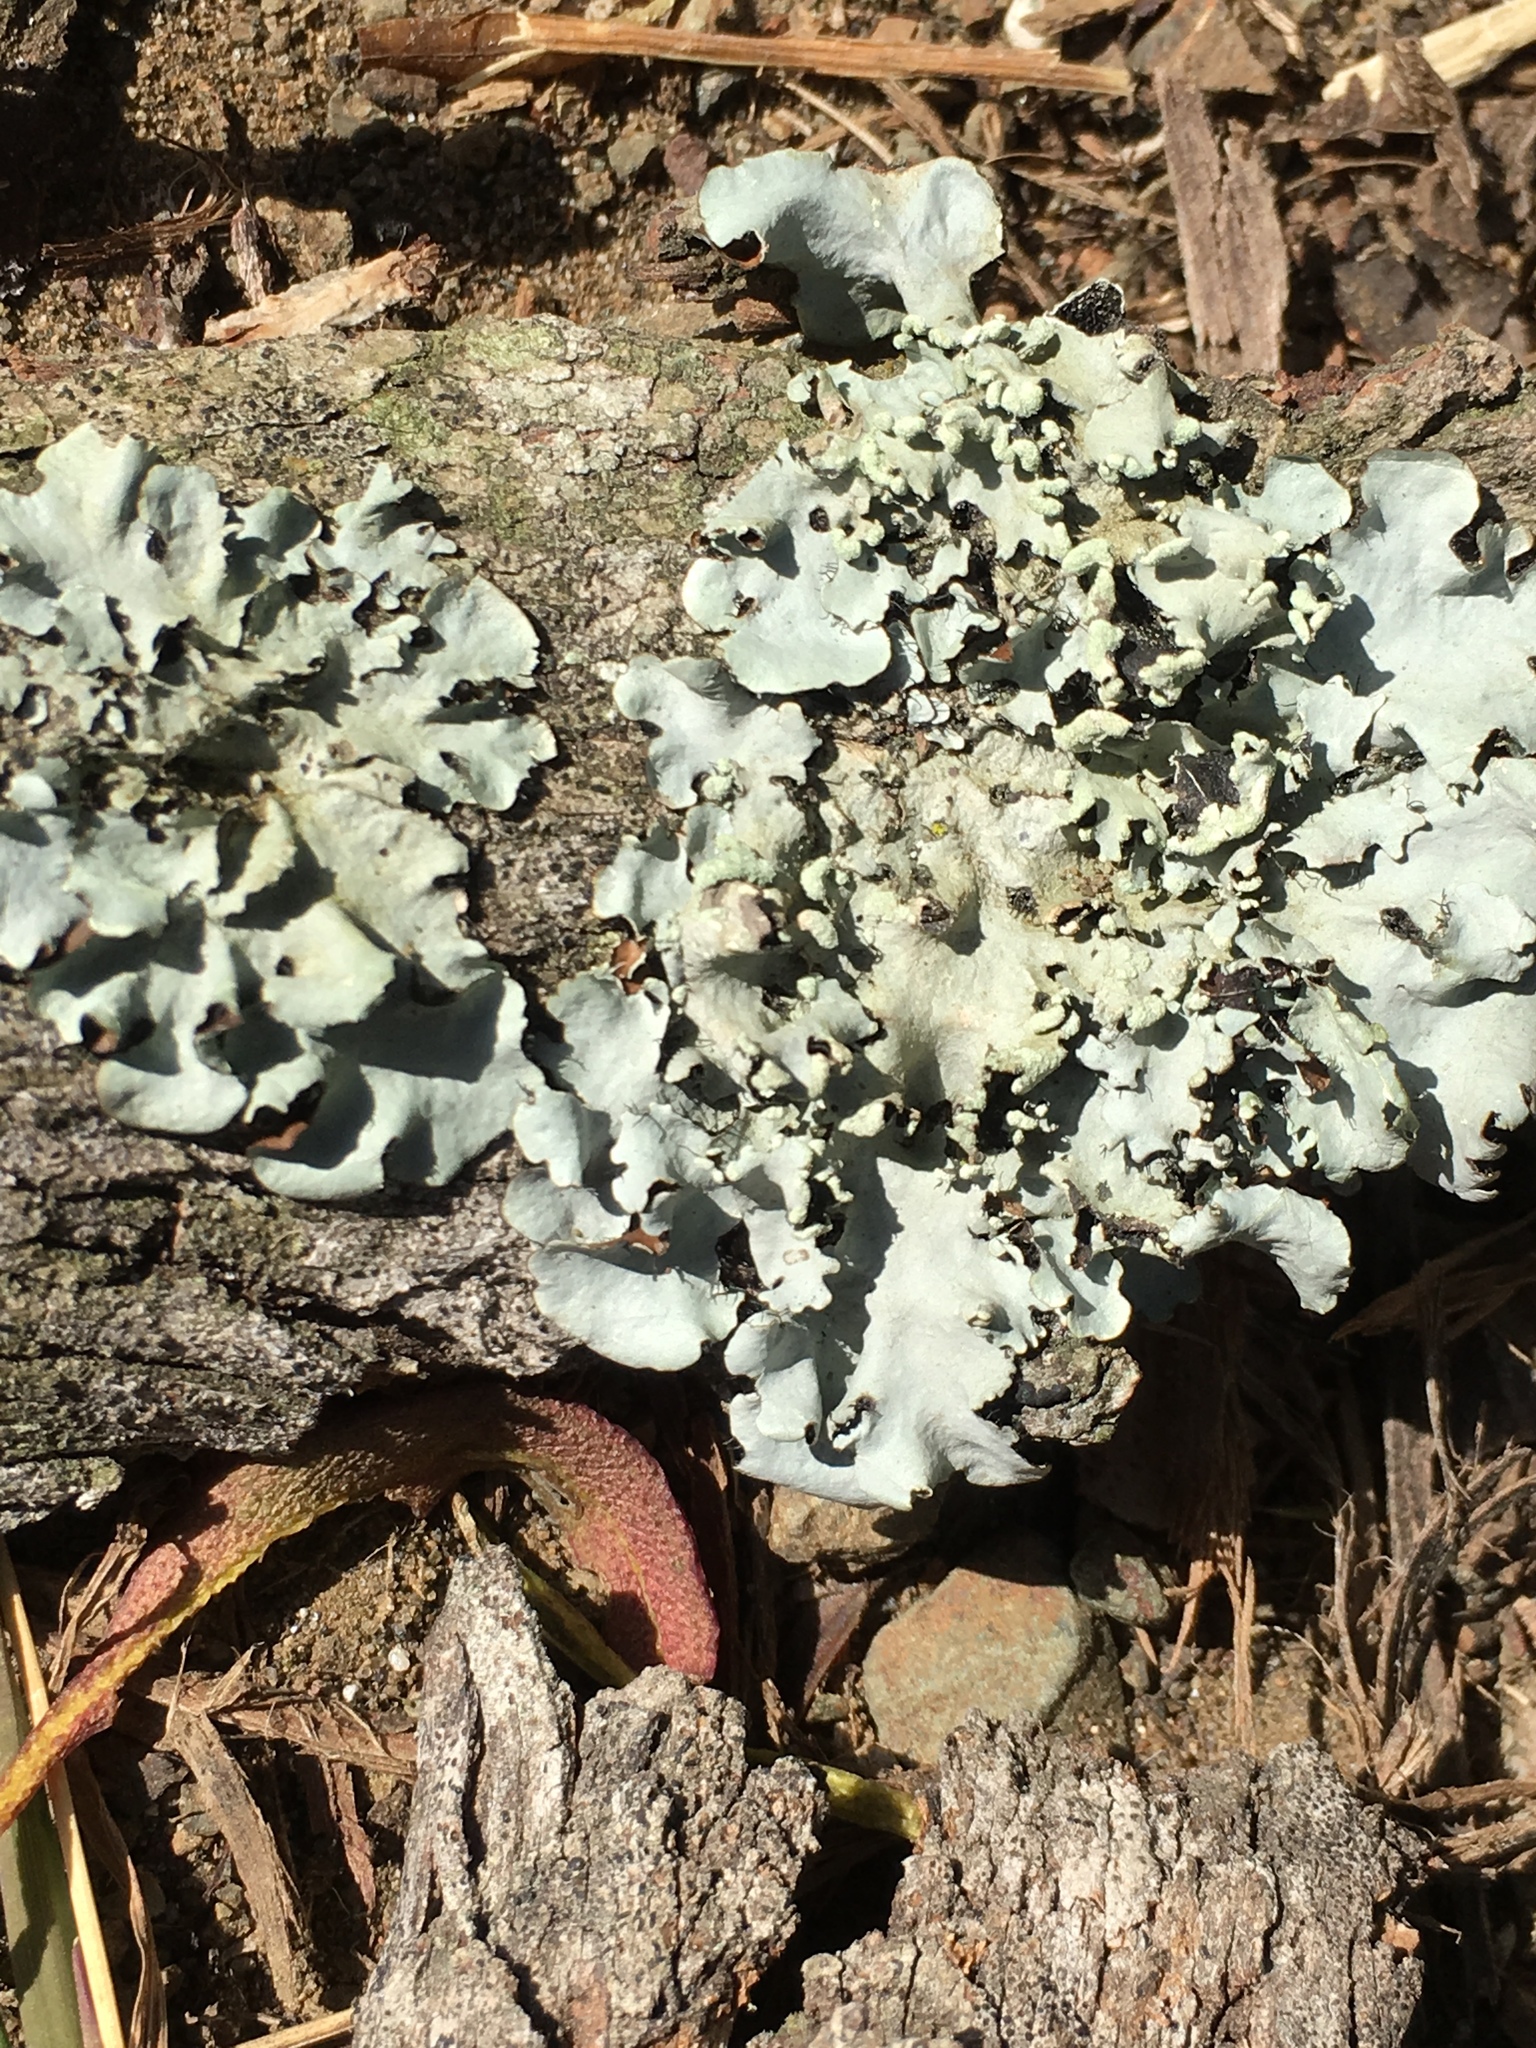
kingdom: Fungi
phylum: Ascomycota
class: Lecanoromycetes
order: Lecanorales
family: Parmeliaceae
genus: Punctelia
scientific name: Punctelia jeckeri
